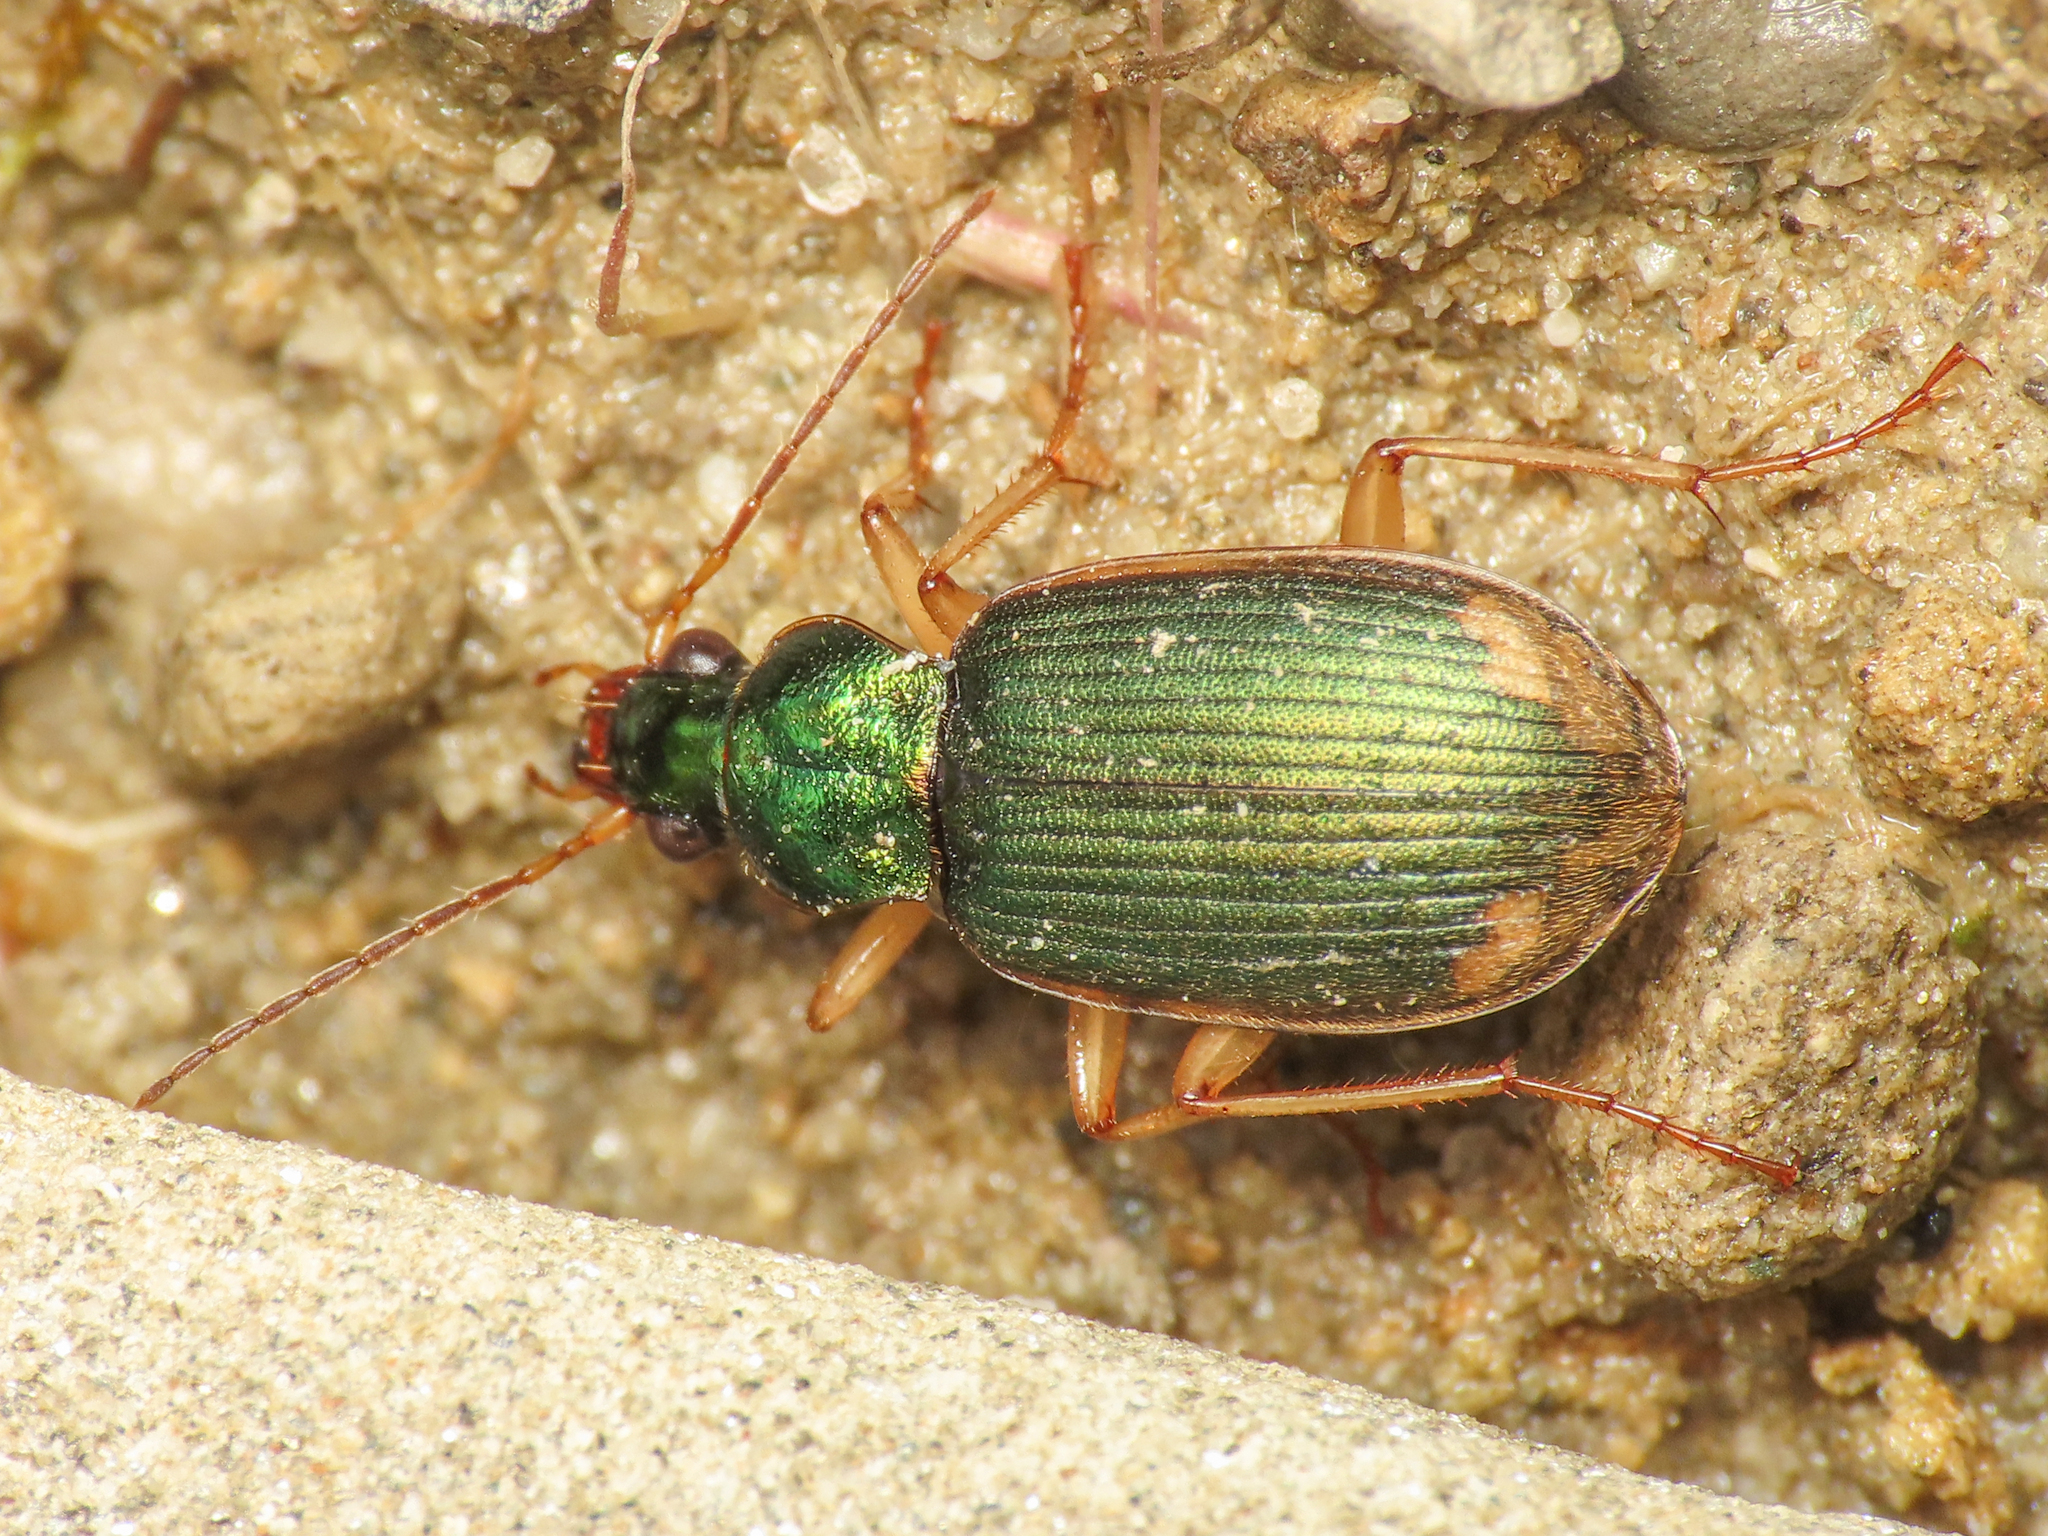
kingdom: Animalia
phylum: Arthropoda
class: Insecta
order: Coleoptera
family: Carabidae
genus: Chlaenius
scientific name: Chlaenius vestitus
